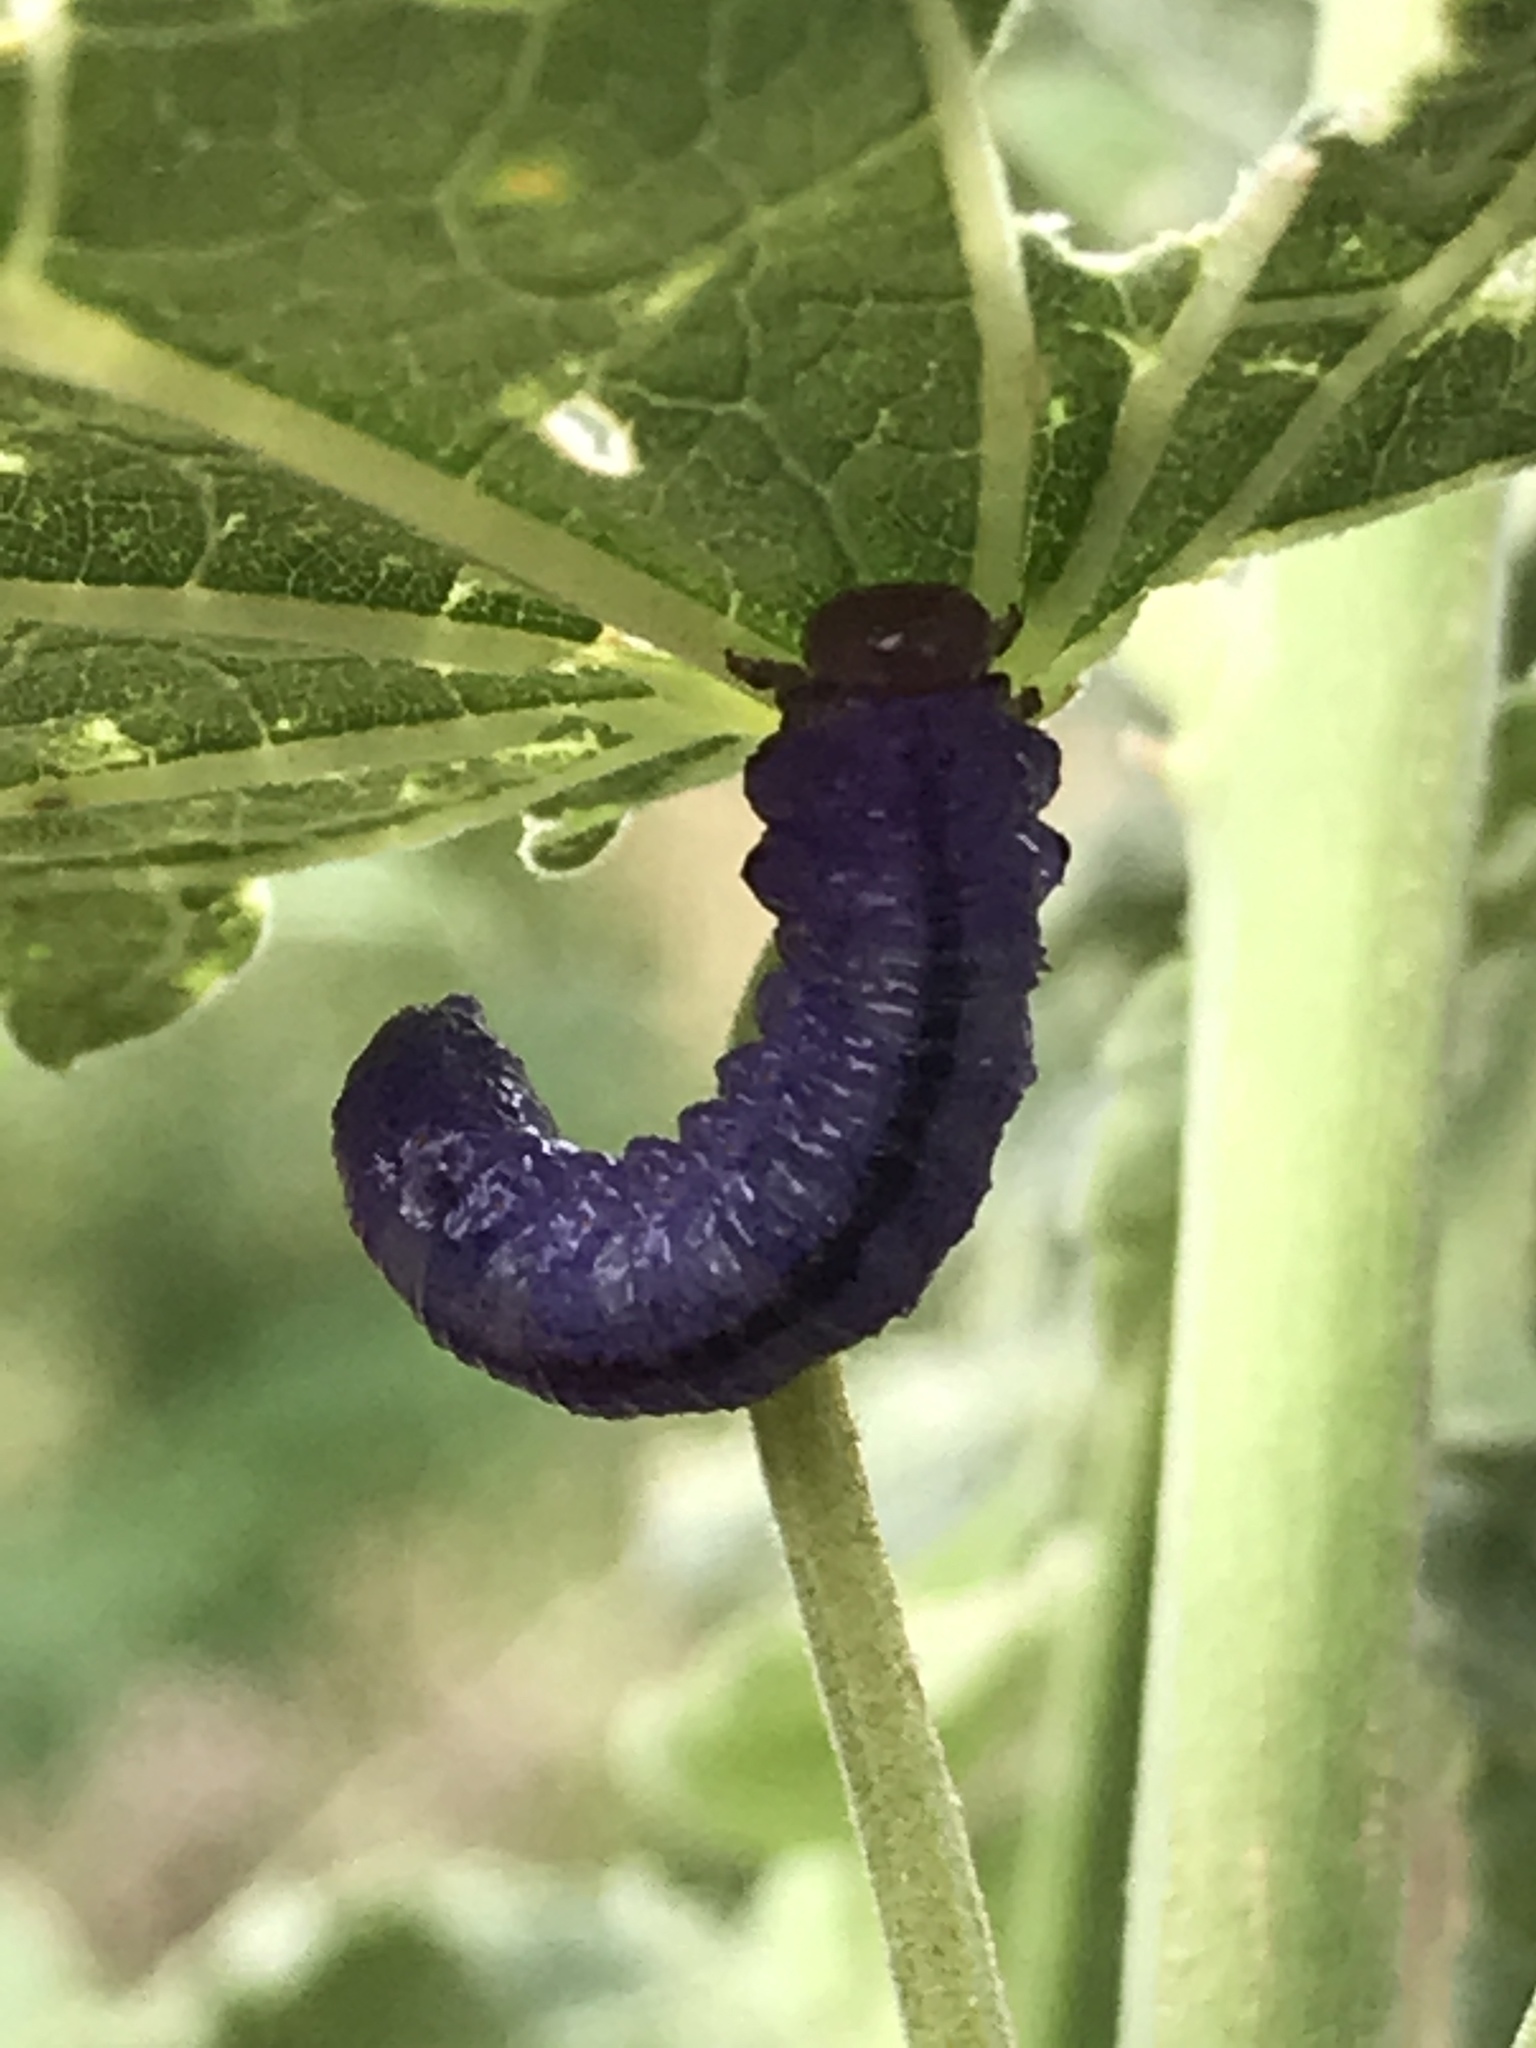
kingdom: Animalia
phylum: Arthropoda
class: Insecta
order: Hymenoptera
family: Argidae
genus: Neoptilia
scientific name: Neoptilia
